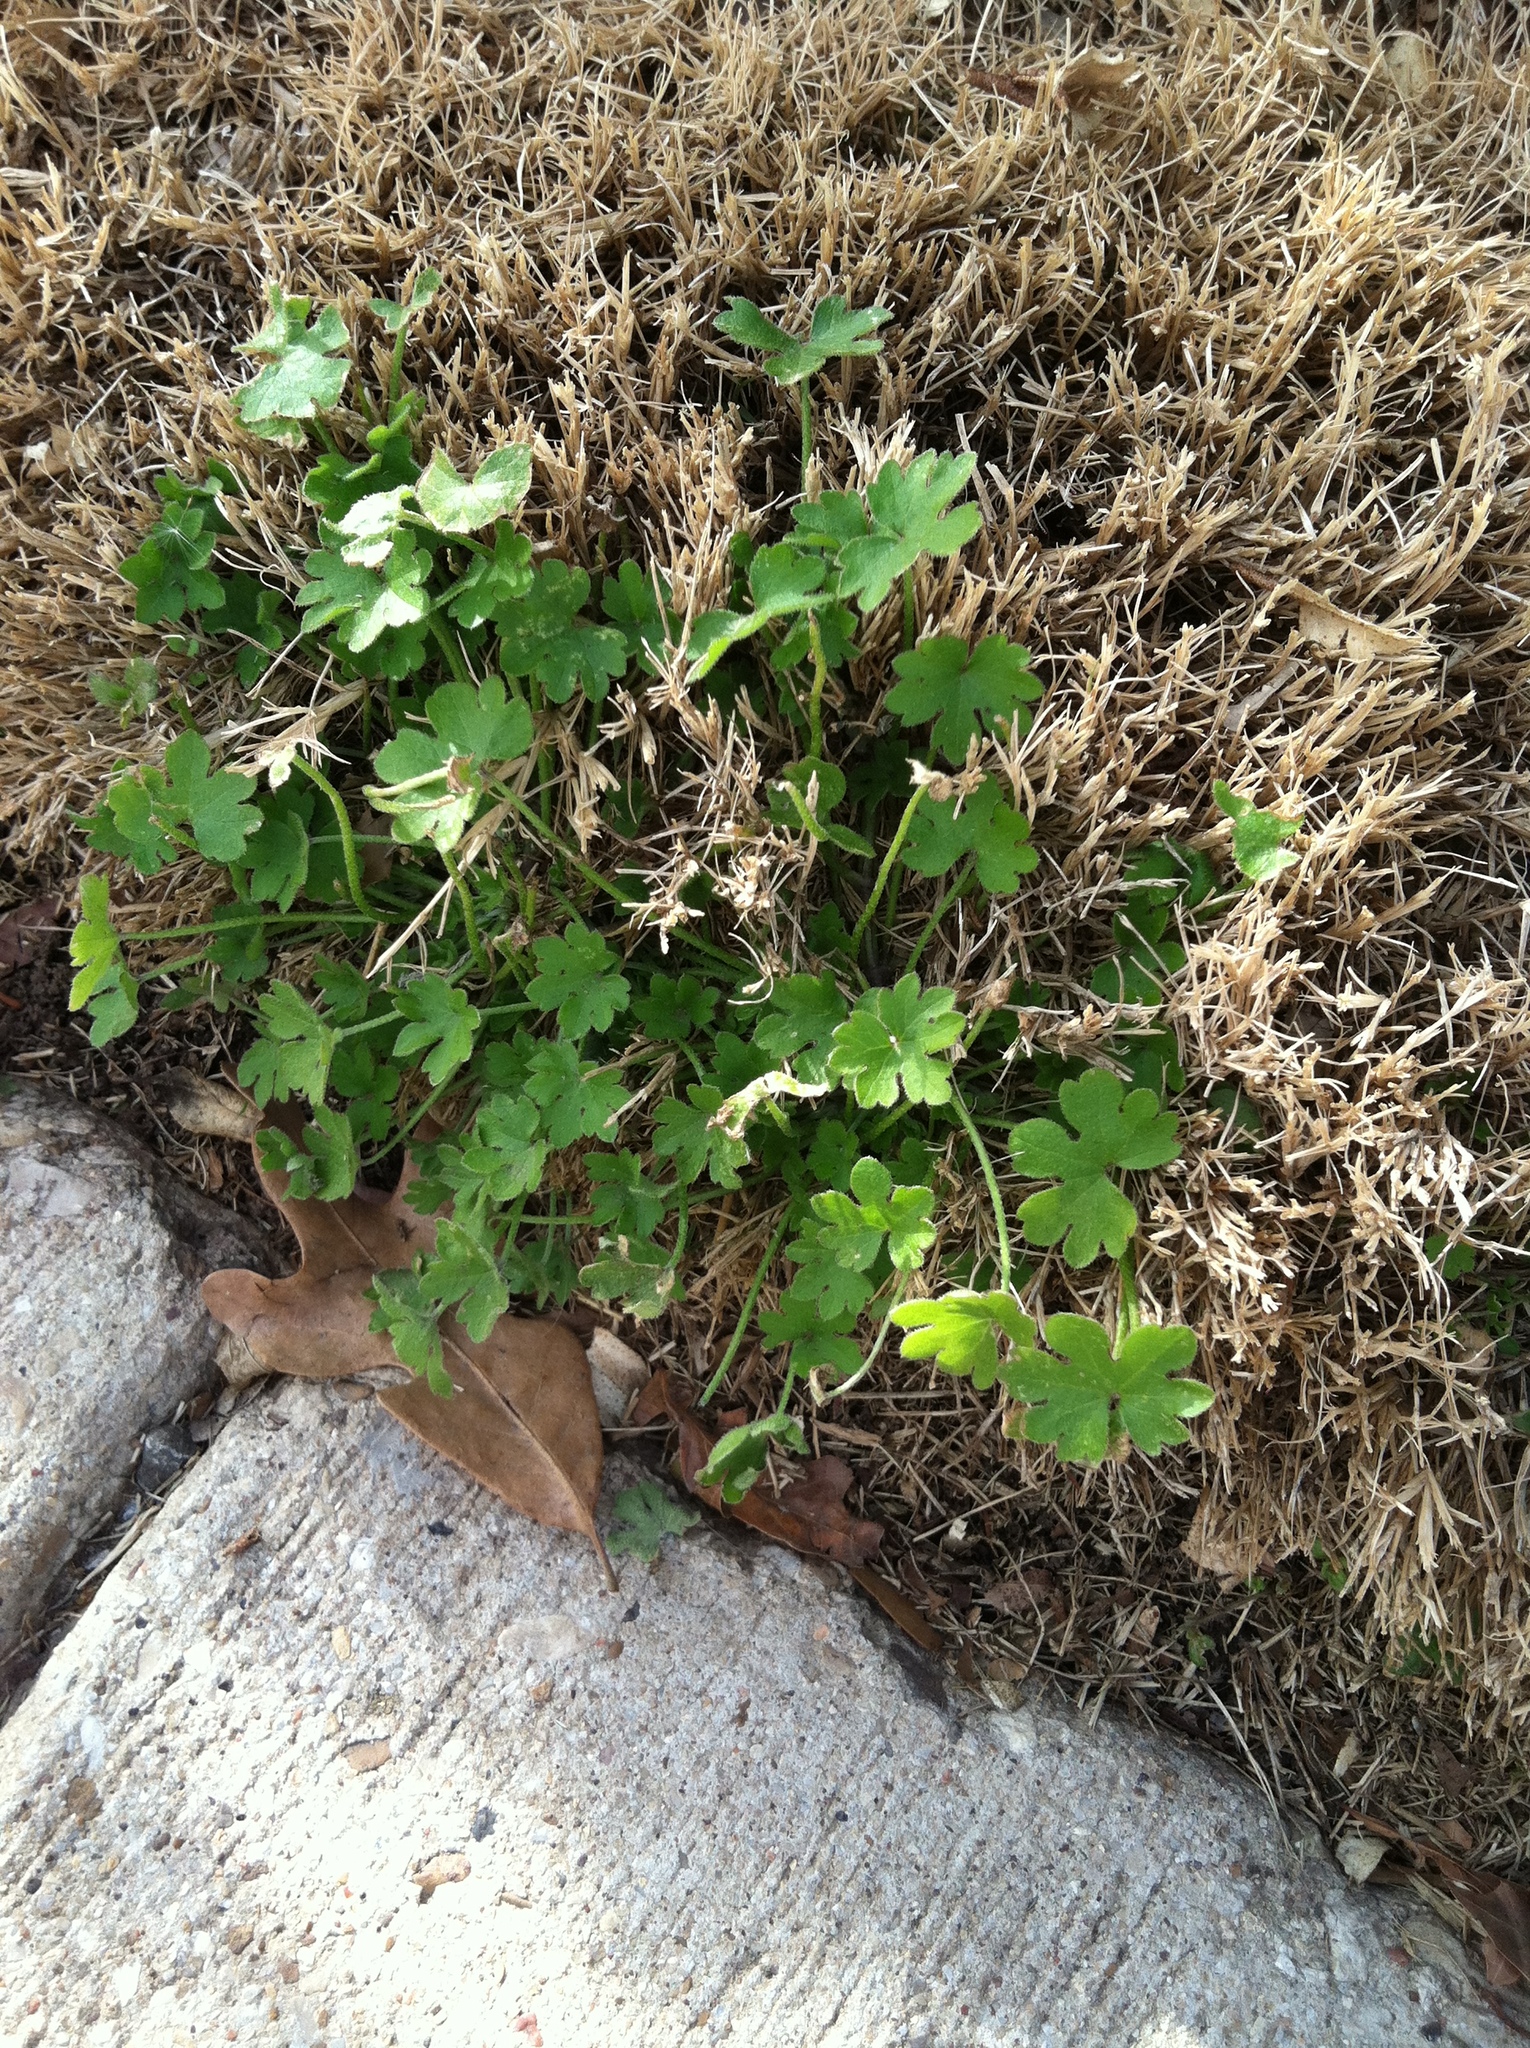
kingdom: Plantae
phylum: Tracheophyta
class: Magnoliopsida
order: Apiales
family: Apiaceae
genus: Bowlesia
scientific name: Bowlesia incana
